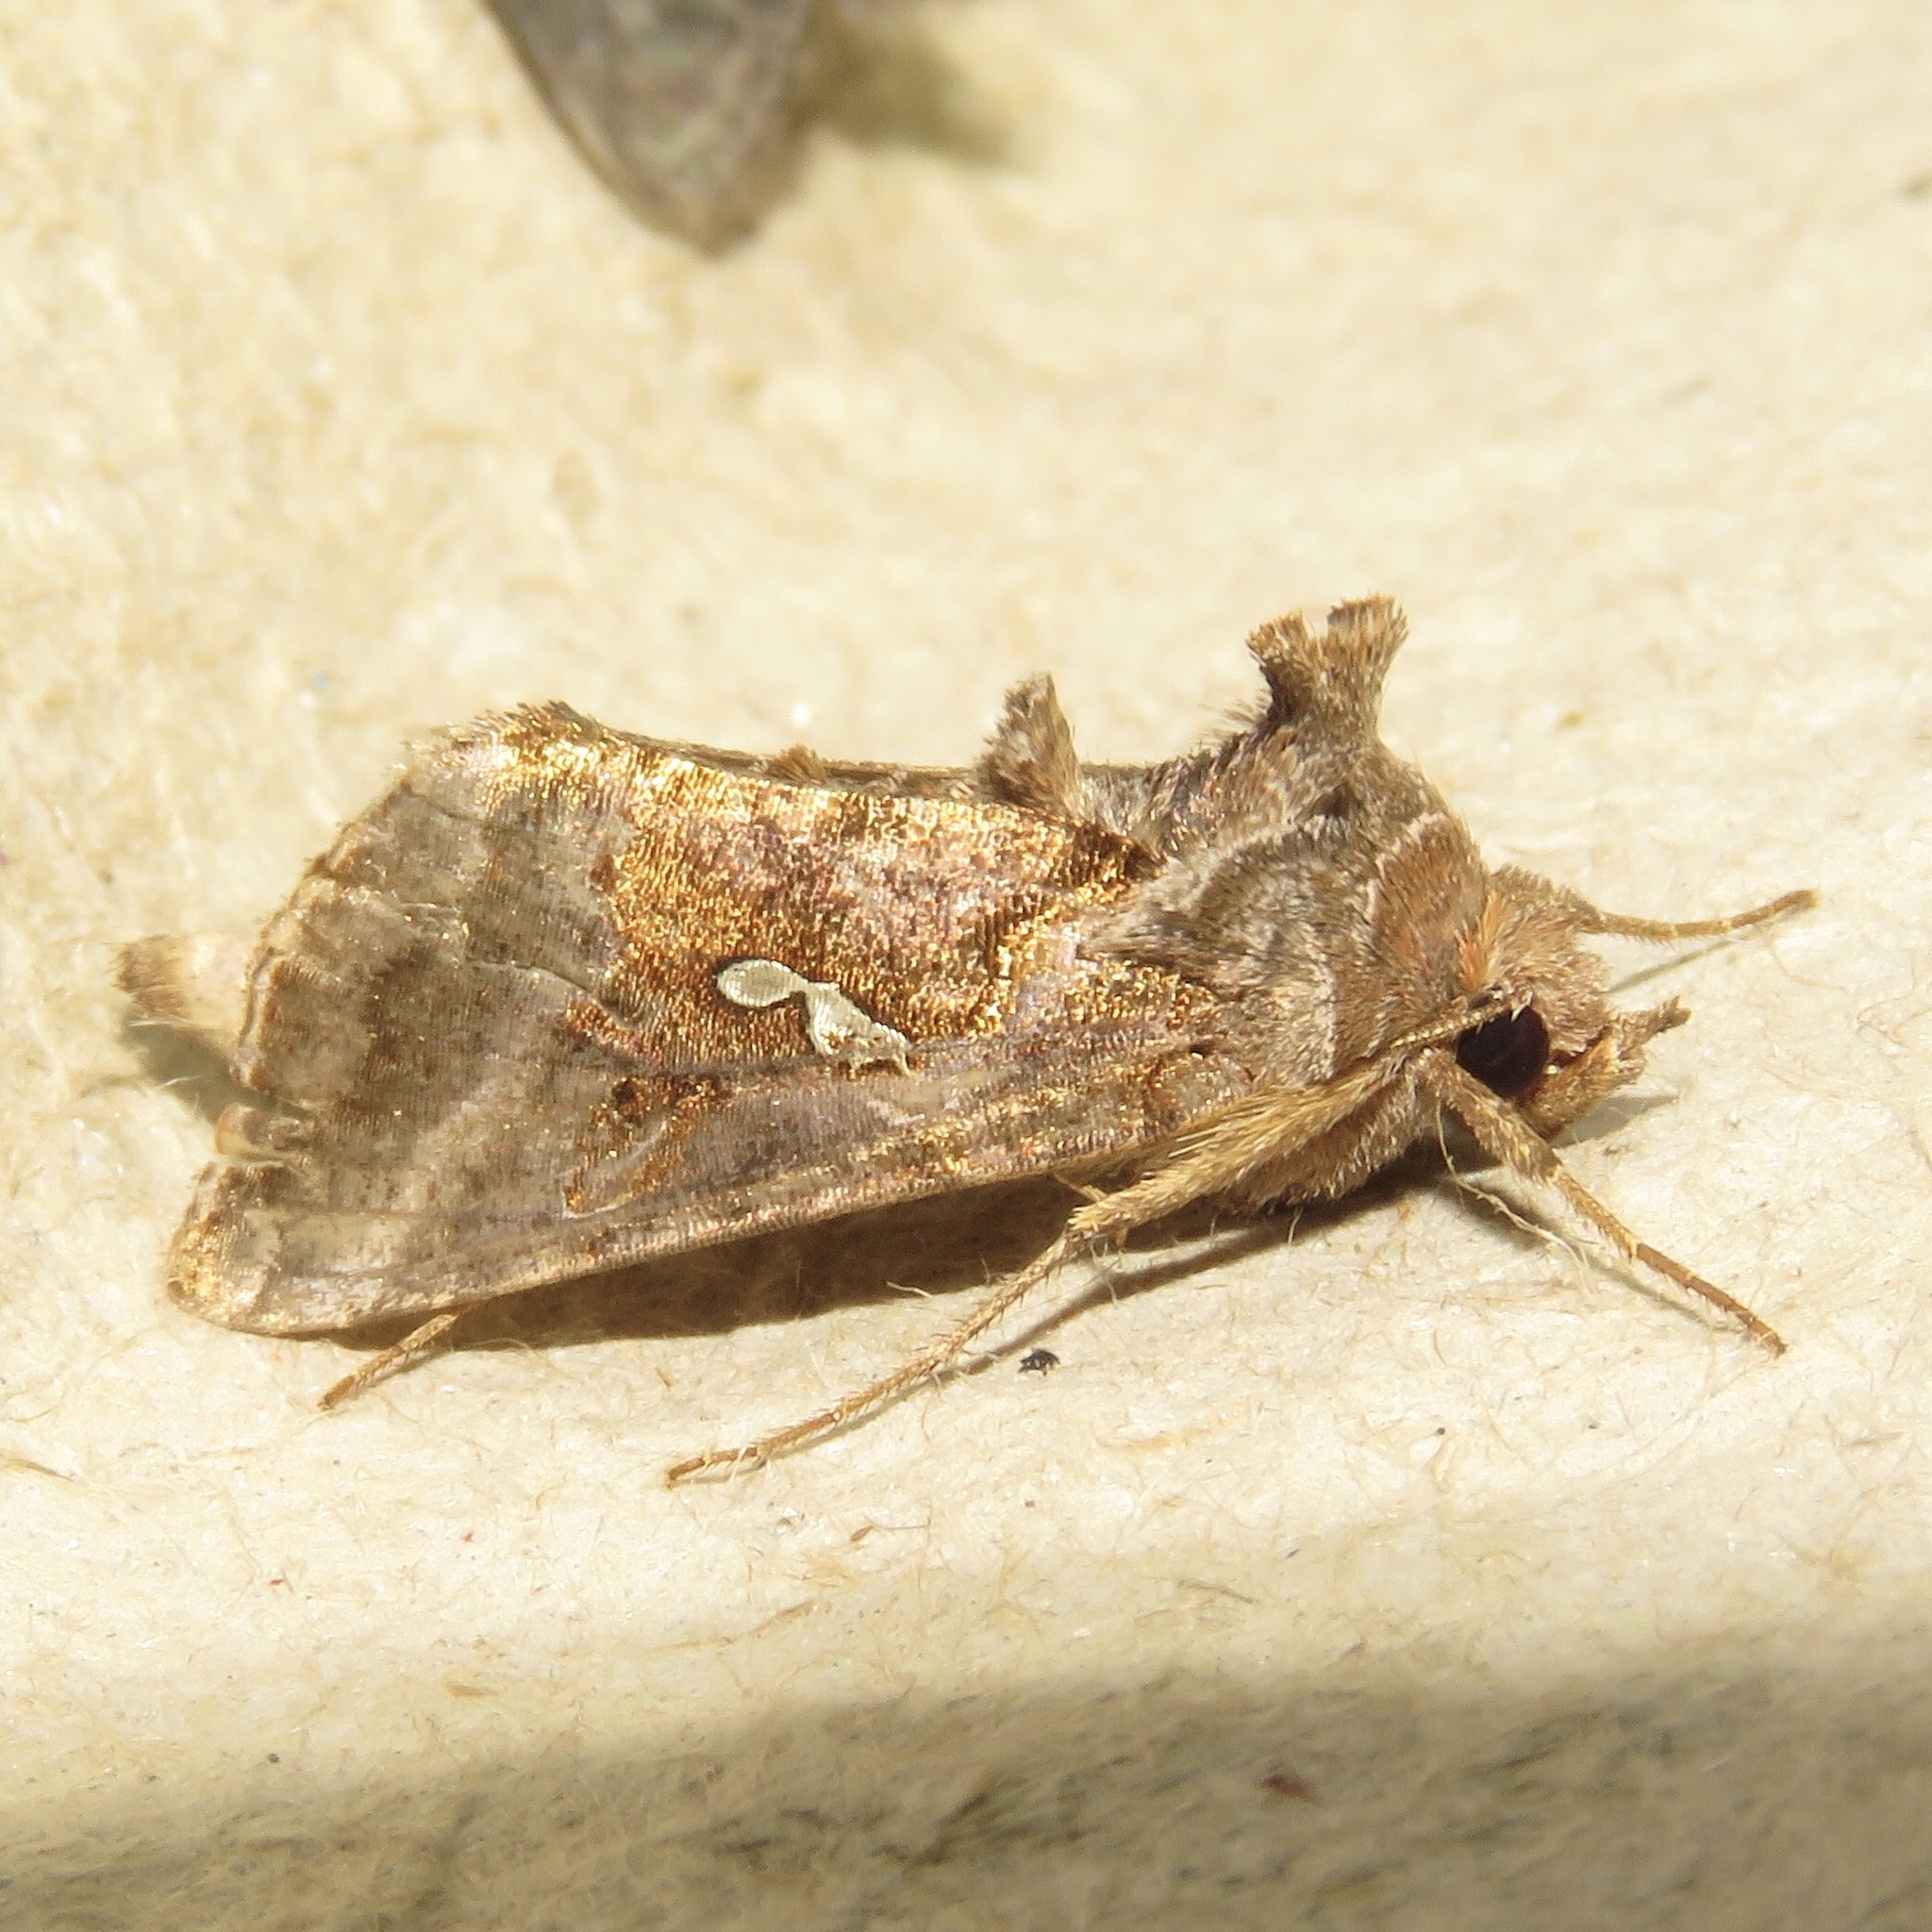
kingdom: Animalia
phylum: Arthropoda
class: Insecta
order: Lepidoptera
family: Noctuidae
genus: Autographa
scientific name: Autographa precationis
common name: Common looper moth
